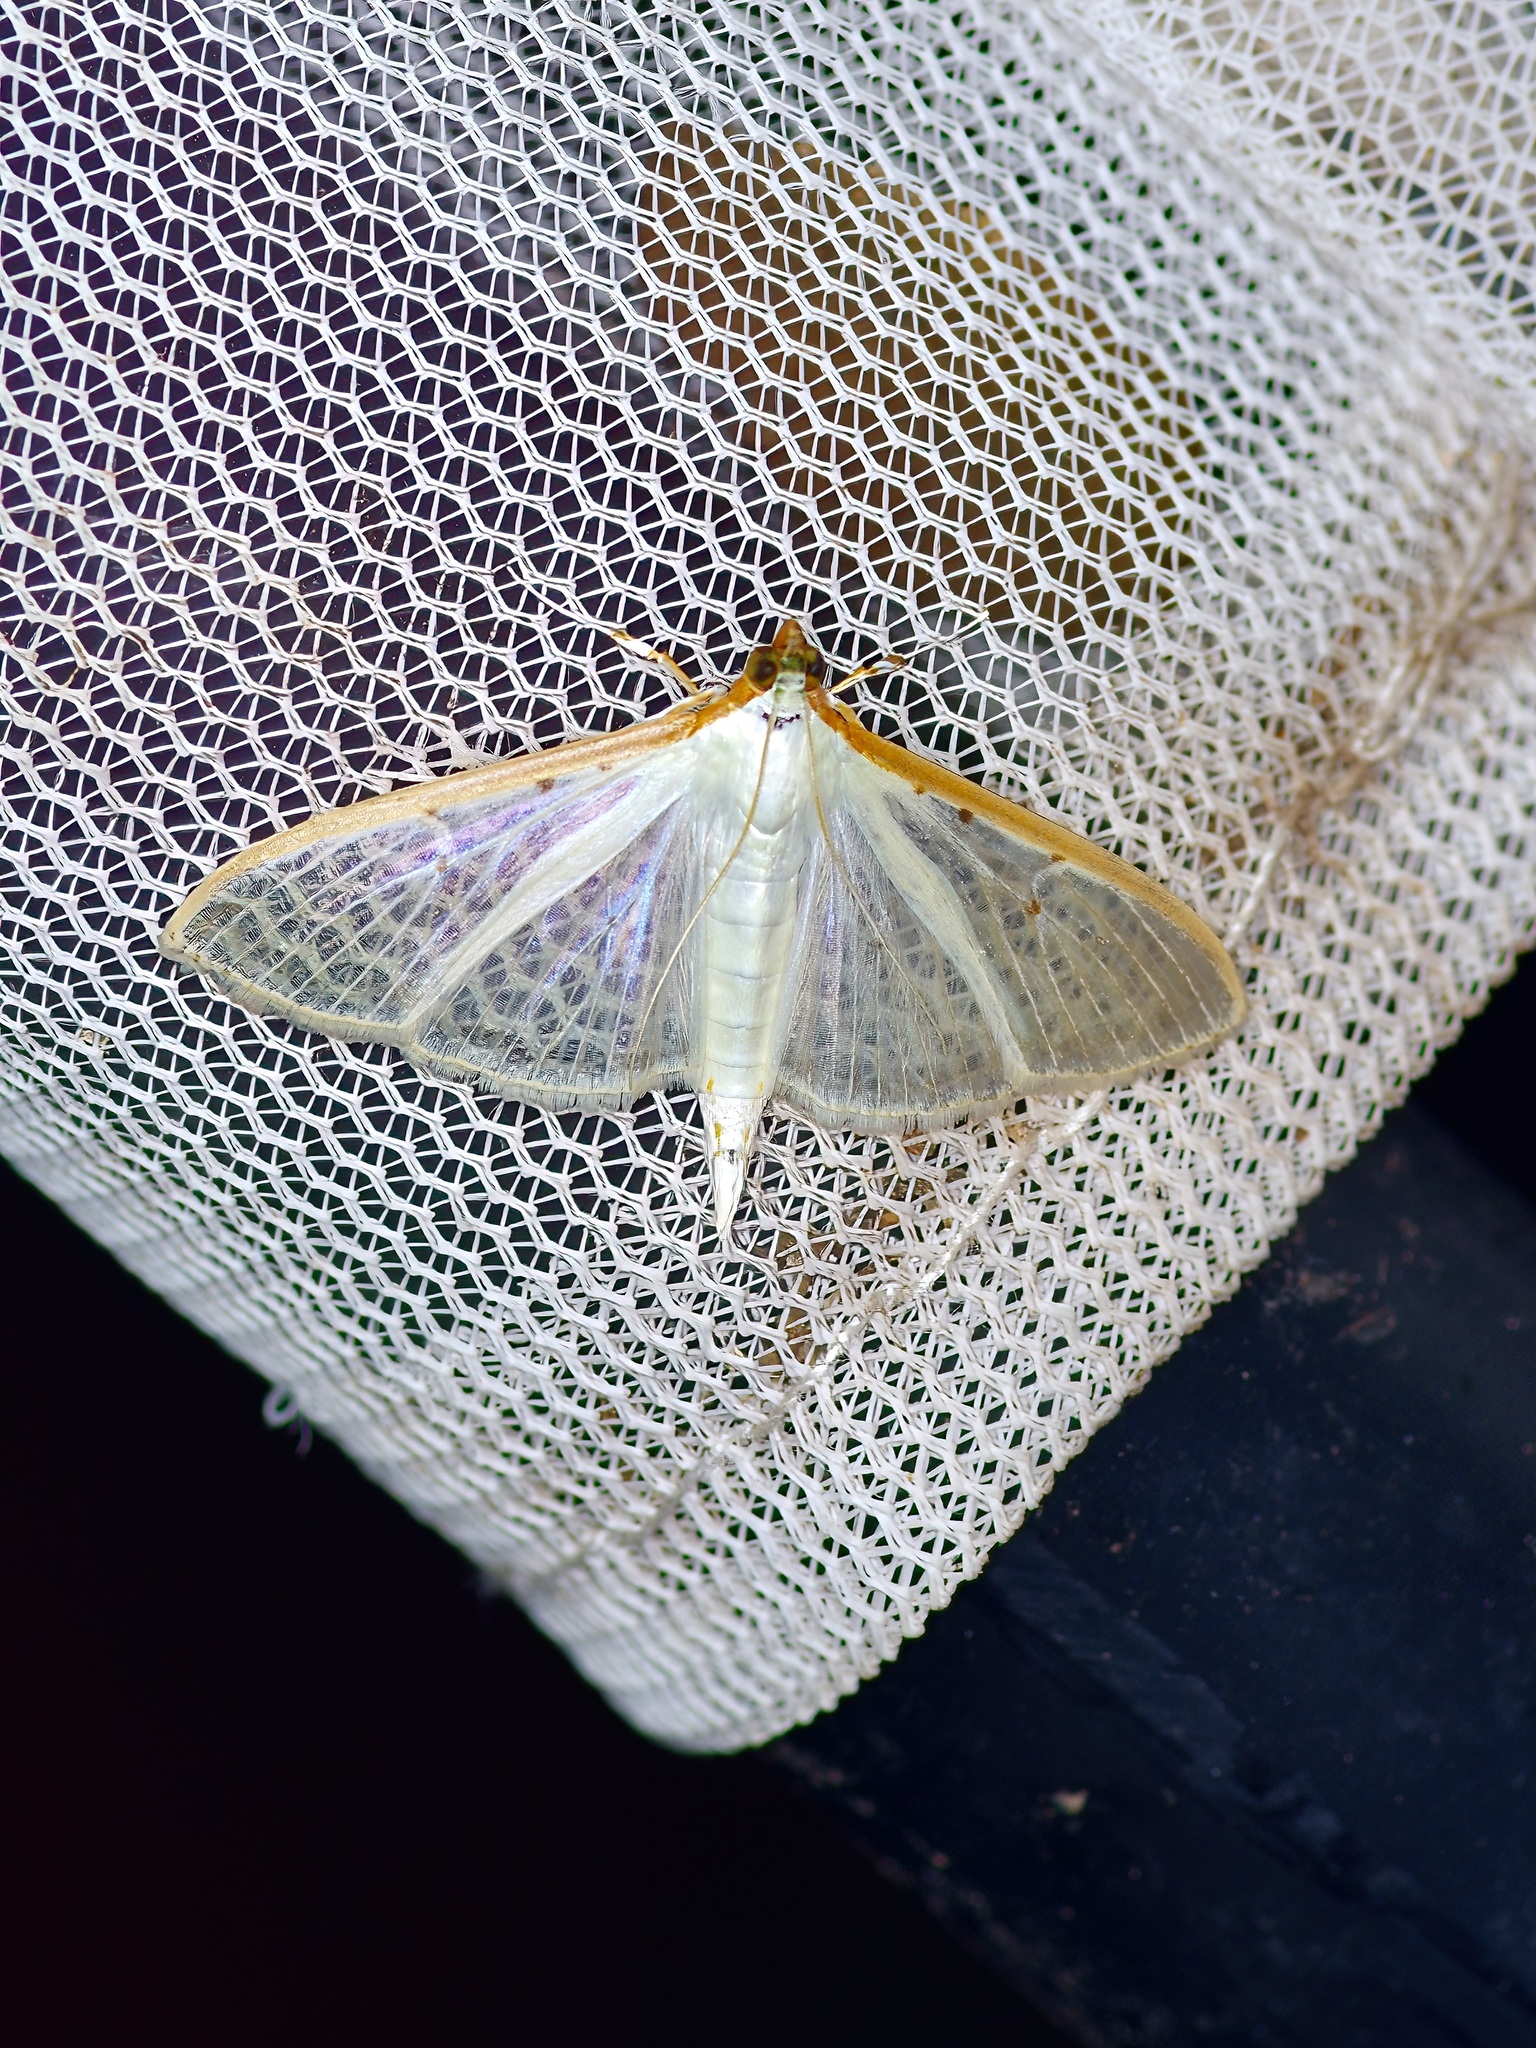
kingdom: Animalia
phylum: Arthropoda
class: Insecta
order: Lepidoptera
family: Crambidae
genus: Palpita
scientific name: Palpita quadristigmalis
